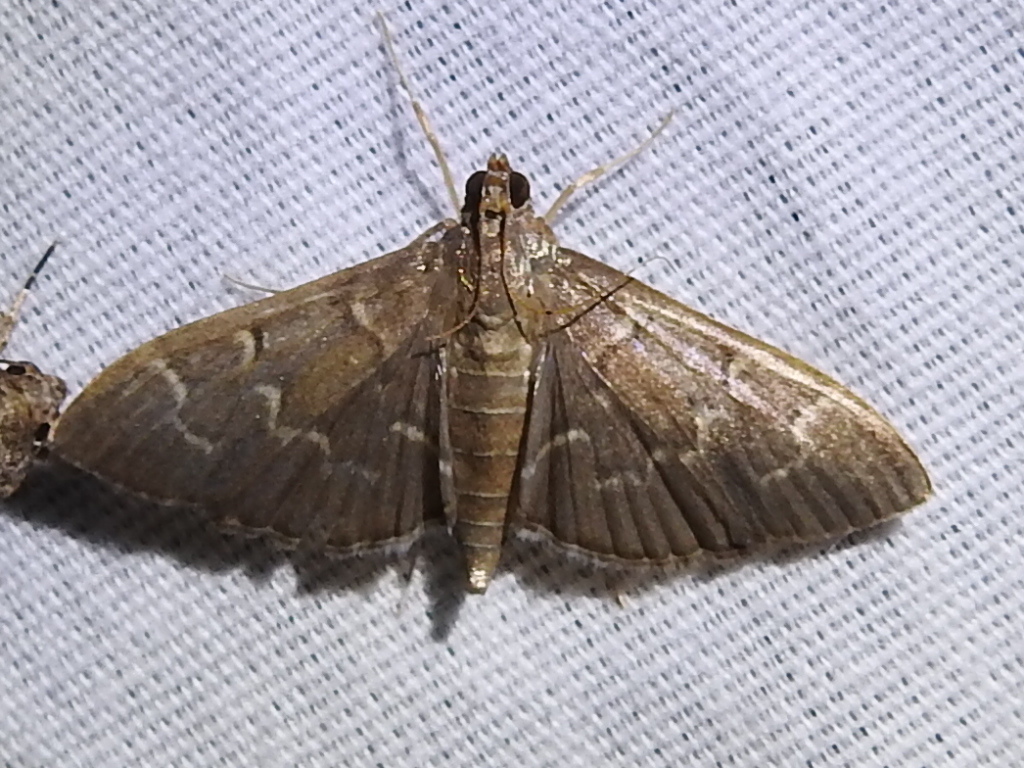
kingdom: Animalia
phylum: Arthropoda
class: Insecta
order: Lepidoptera
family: Crambidae
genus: Pilocrocis
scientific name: Pilocrocis ramentalis
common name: Scraped pilocrocis
